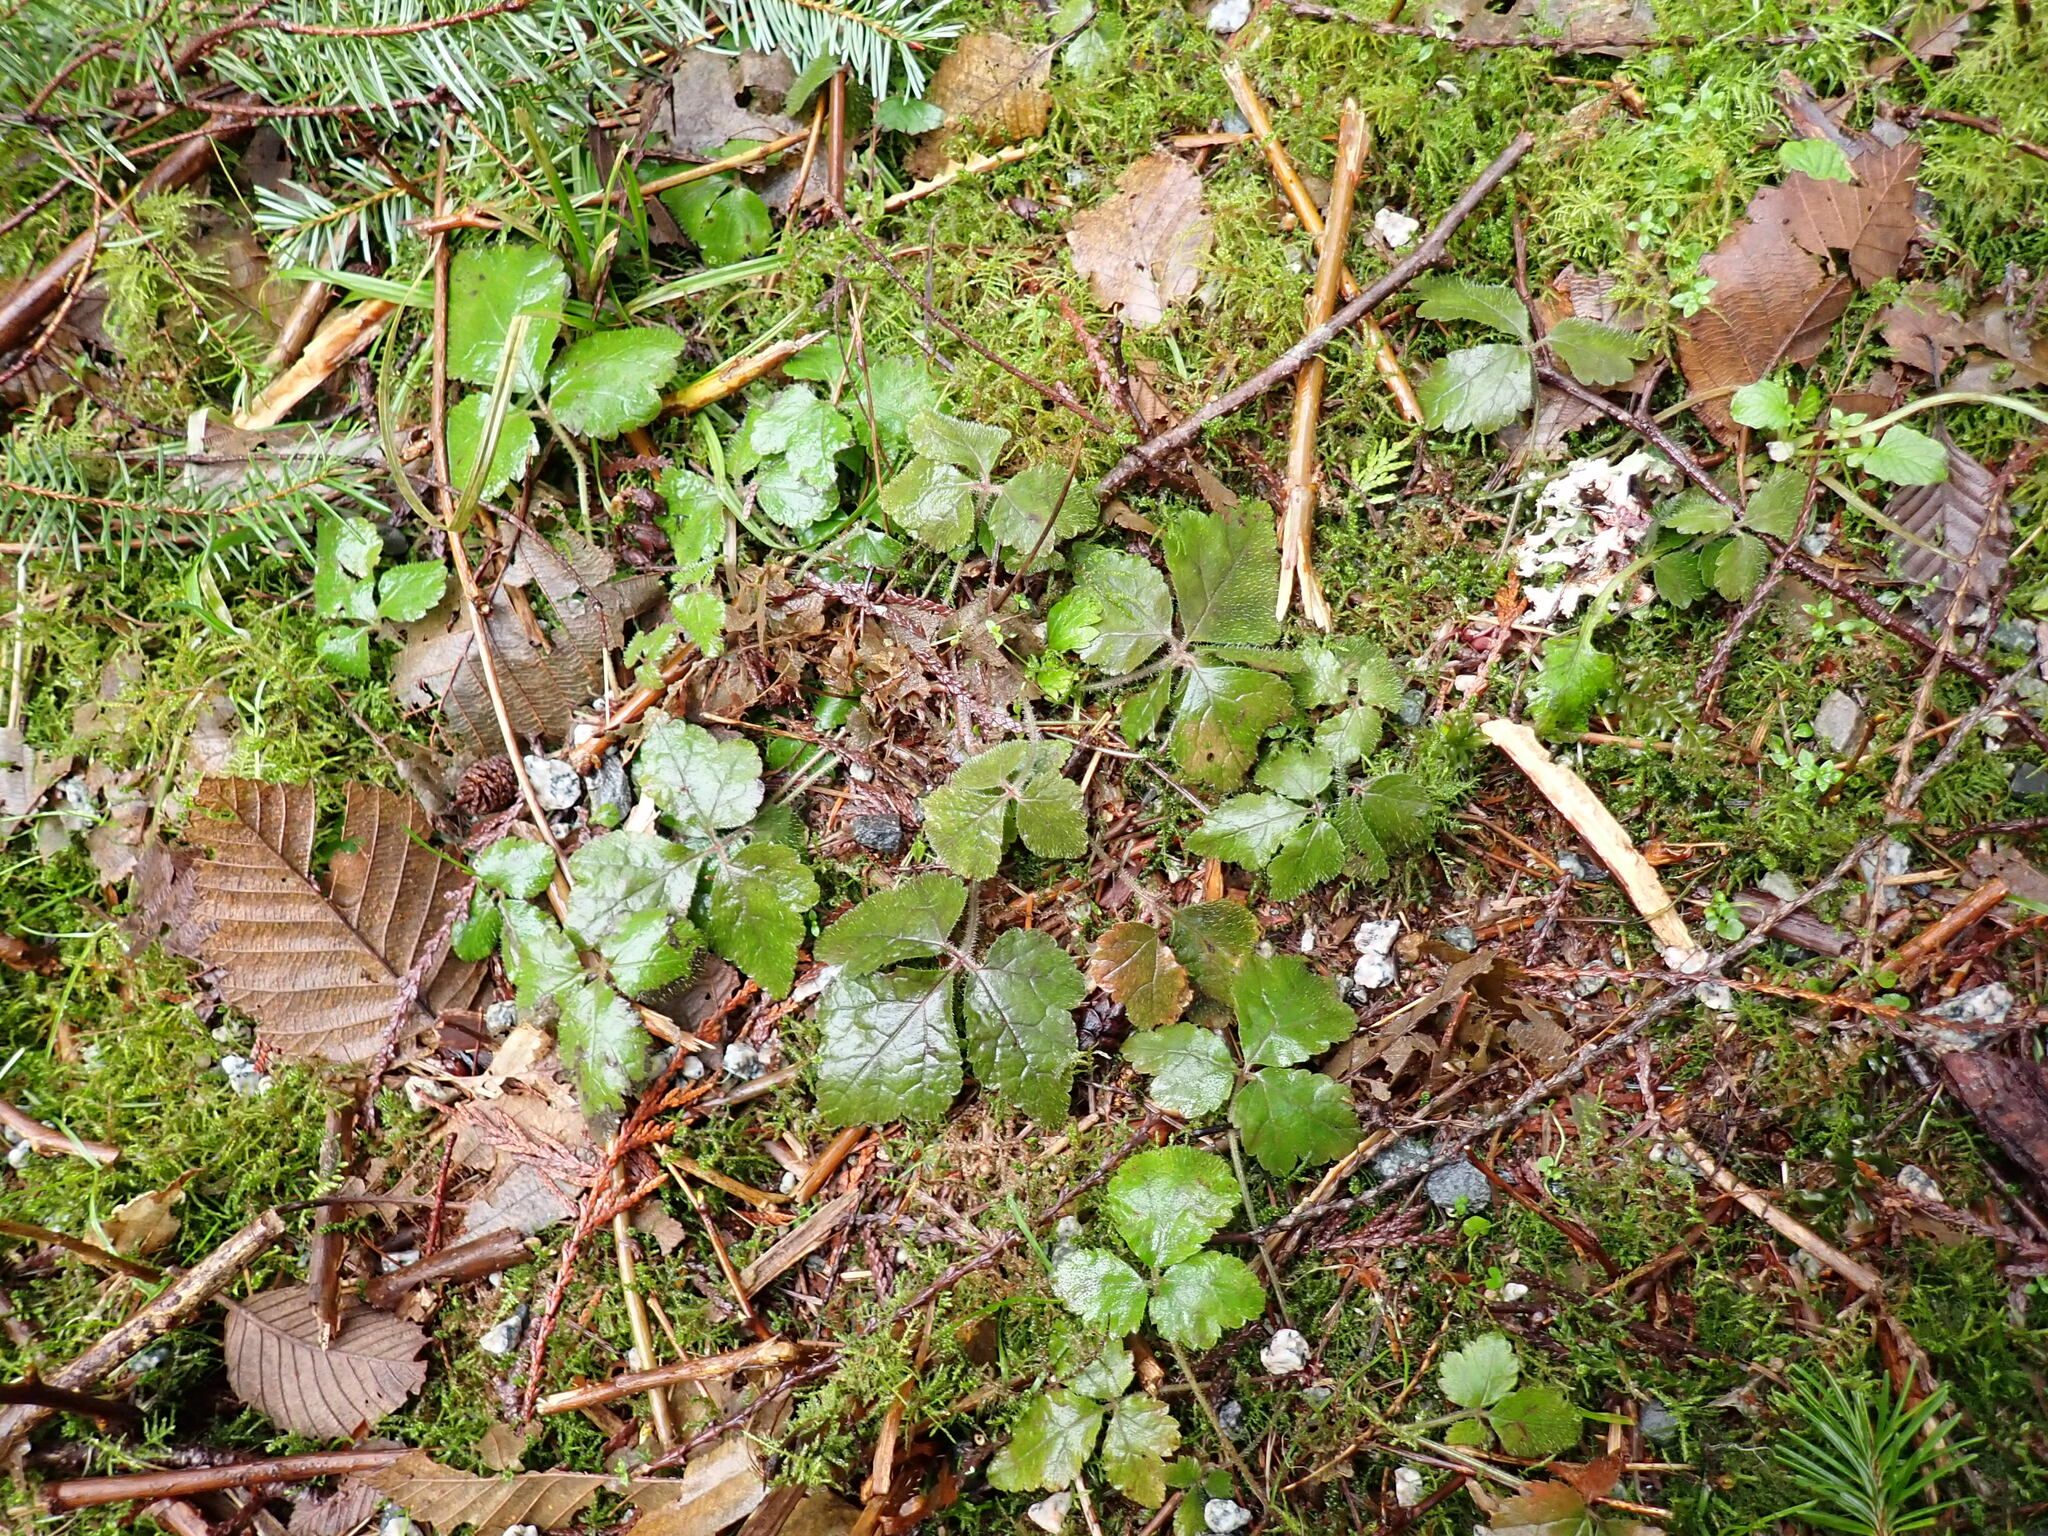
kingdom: Plantae
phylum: Tracheophyta
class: Magnoliopsida
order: Saxifragales
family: Saxifragaceae
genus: Tiarella
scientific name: Tiarella trifoliata
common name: Sugar-scoop
